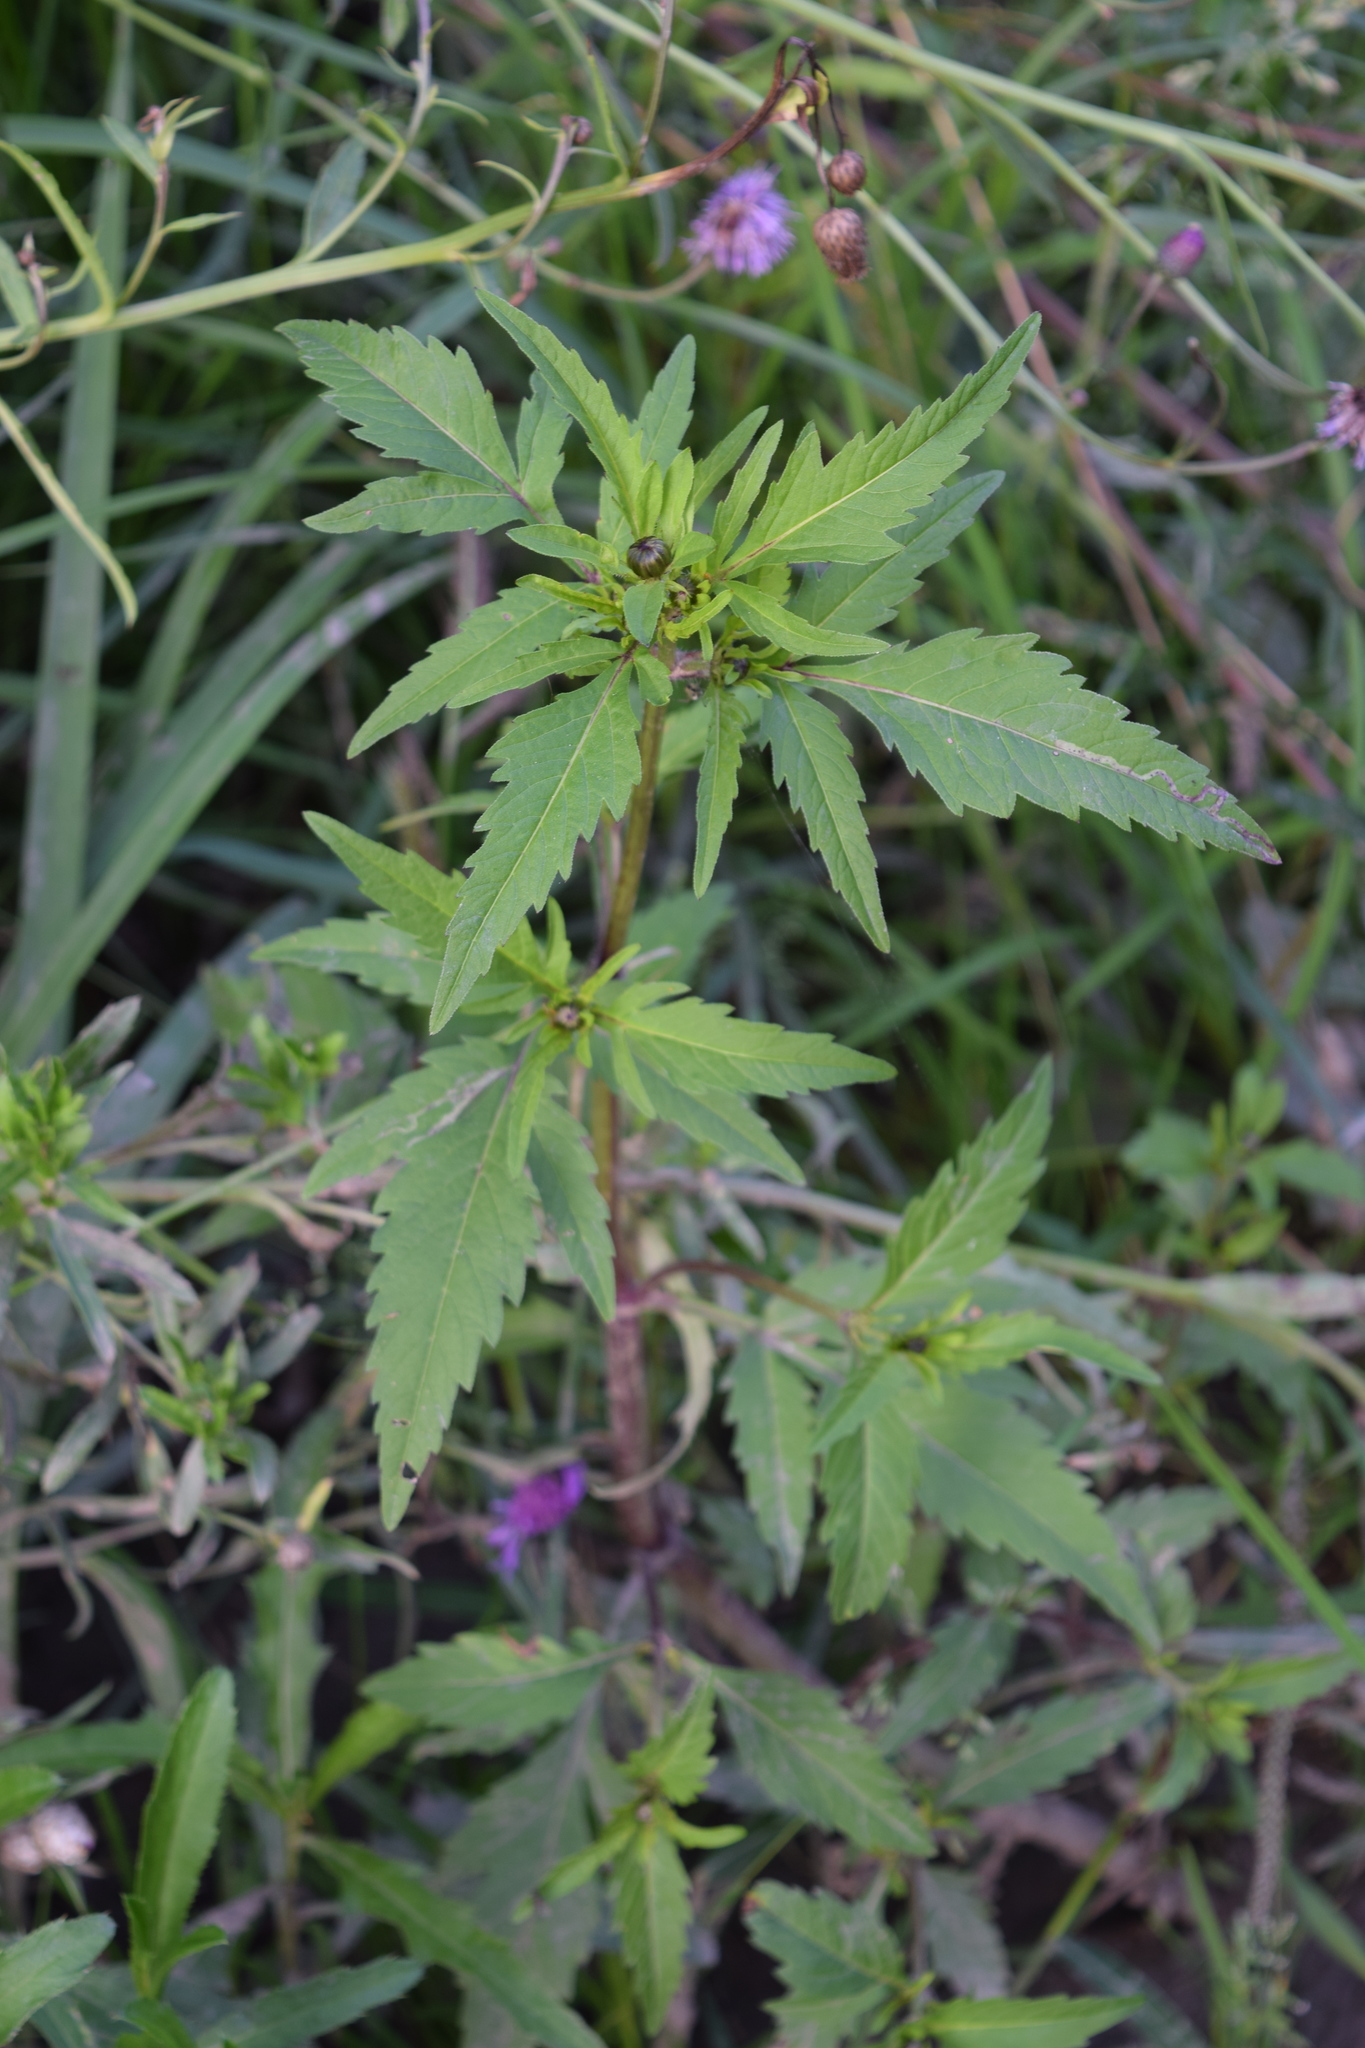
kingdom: Plantae
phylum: Tracheophyta
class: Magnoliopsida
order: Asterales
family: Asteraceae
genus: Bidens
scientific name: Bidens tripartita
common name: Trifid bur-marigold
